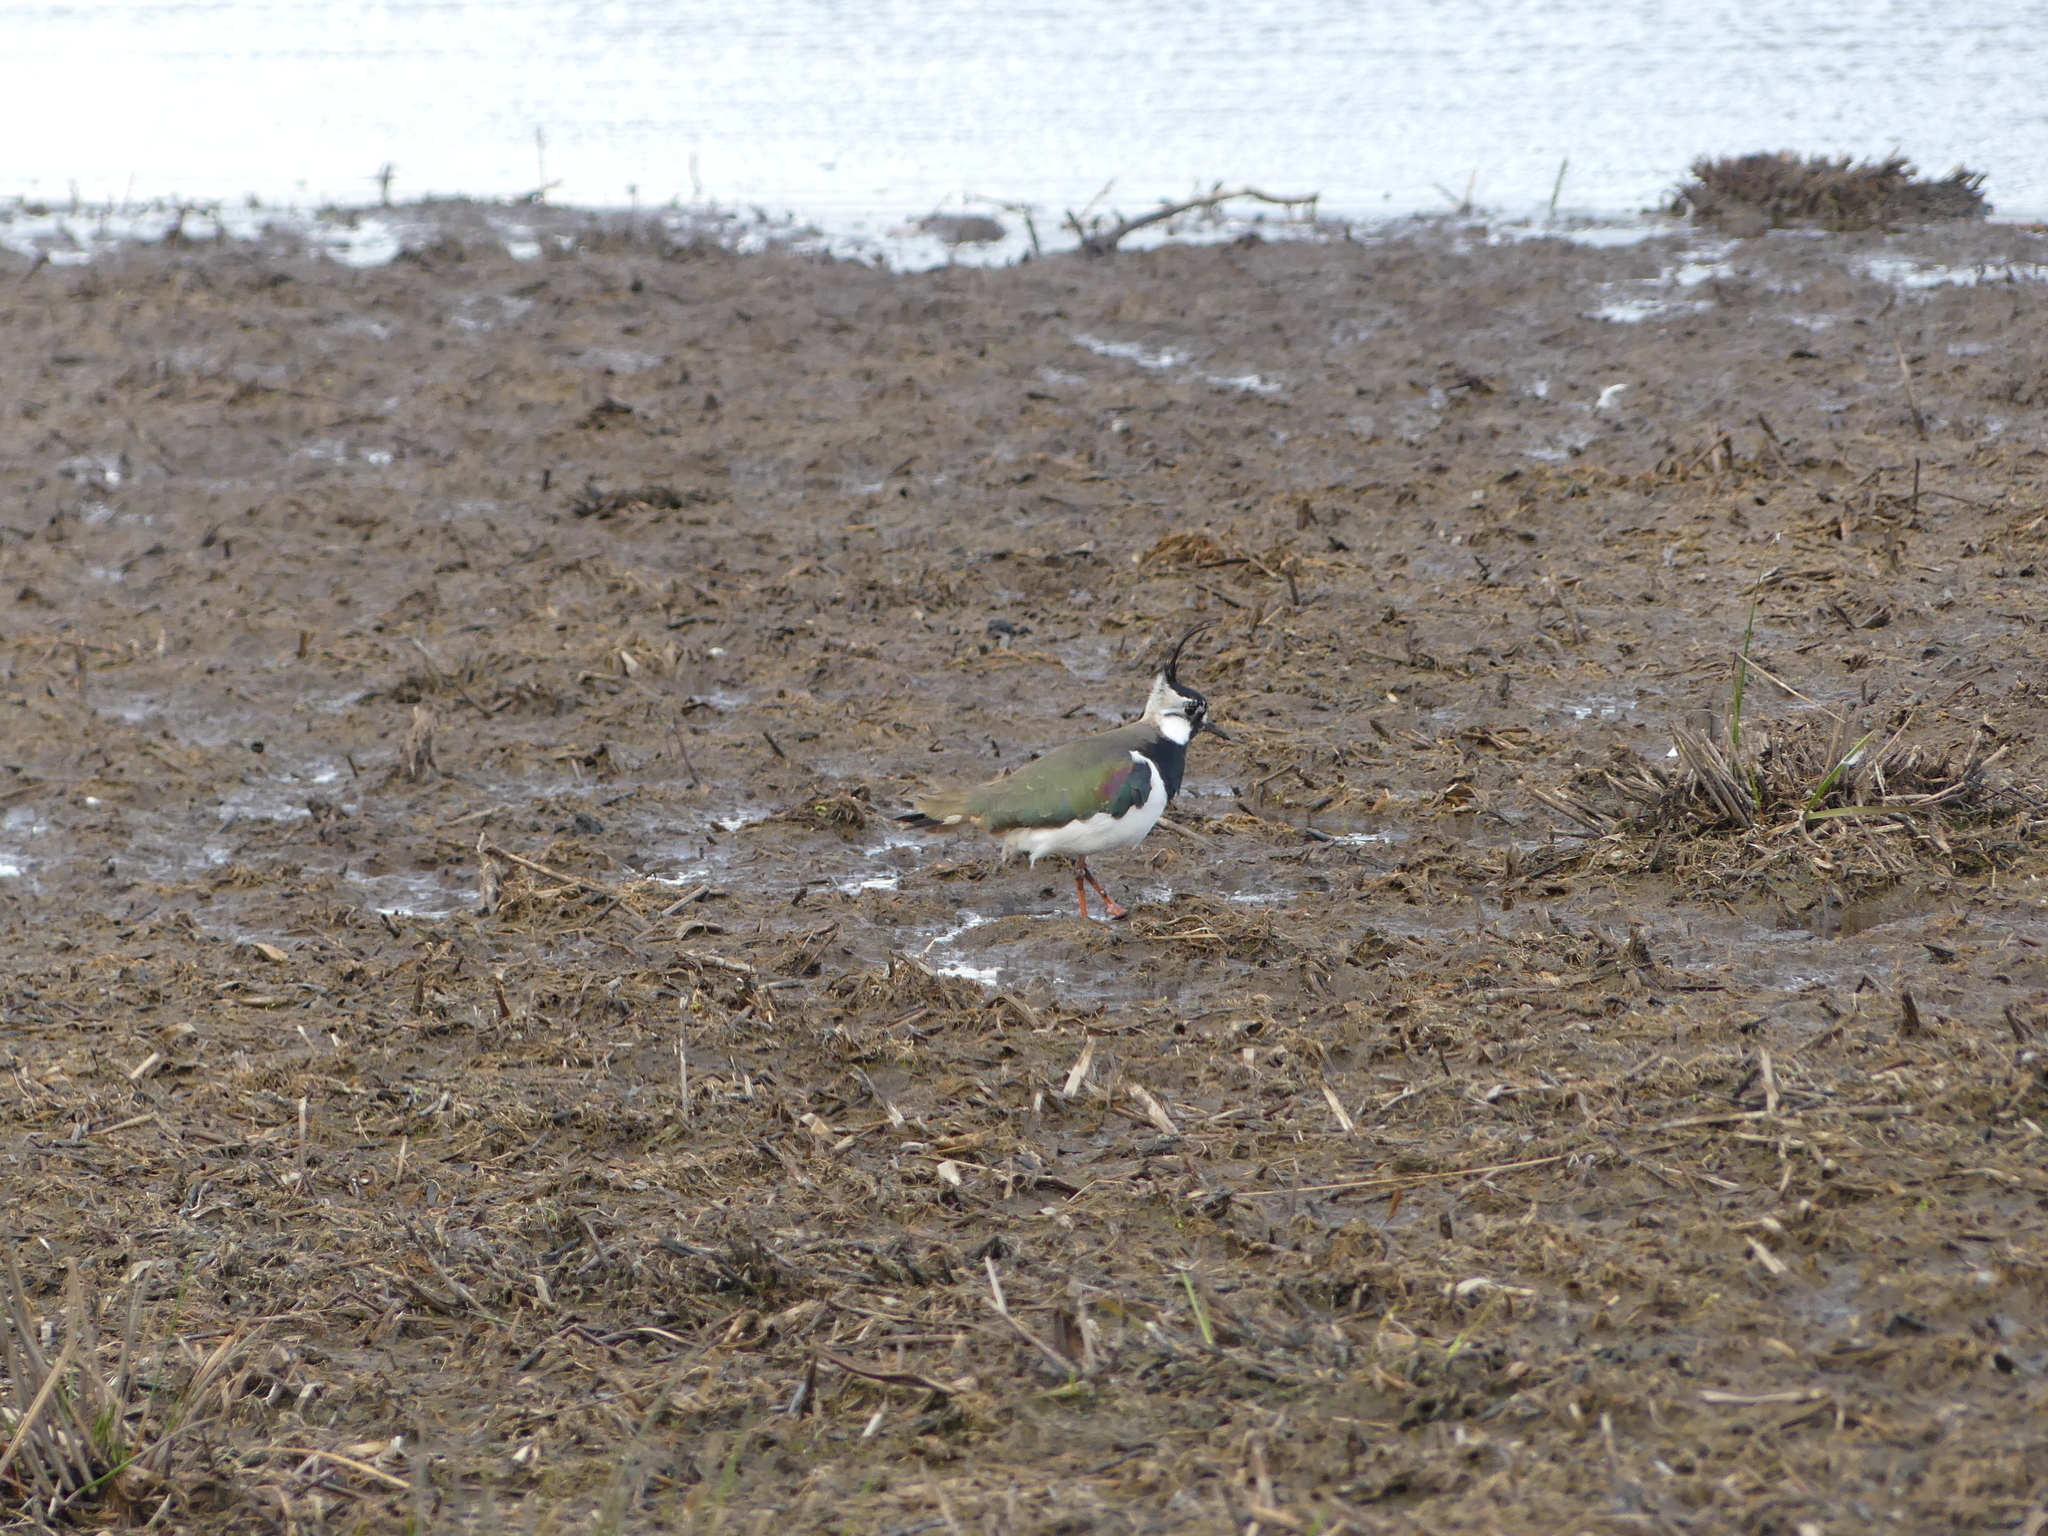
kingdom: Animalia
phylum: Chordata
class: Aves
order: Charadriiformes
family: Charadriidae
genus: Vanellus
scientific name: Vanellus vanellus
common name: Northern lapwing
